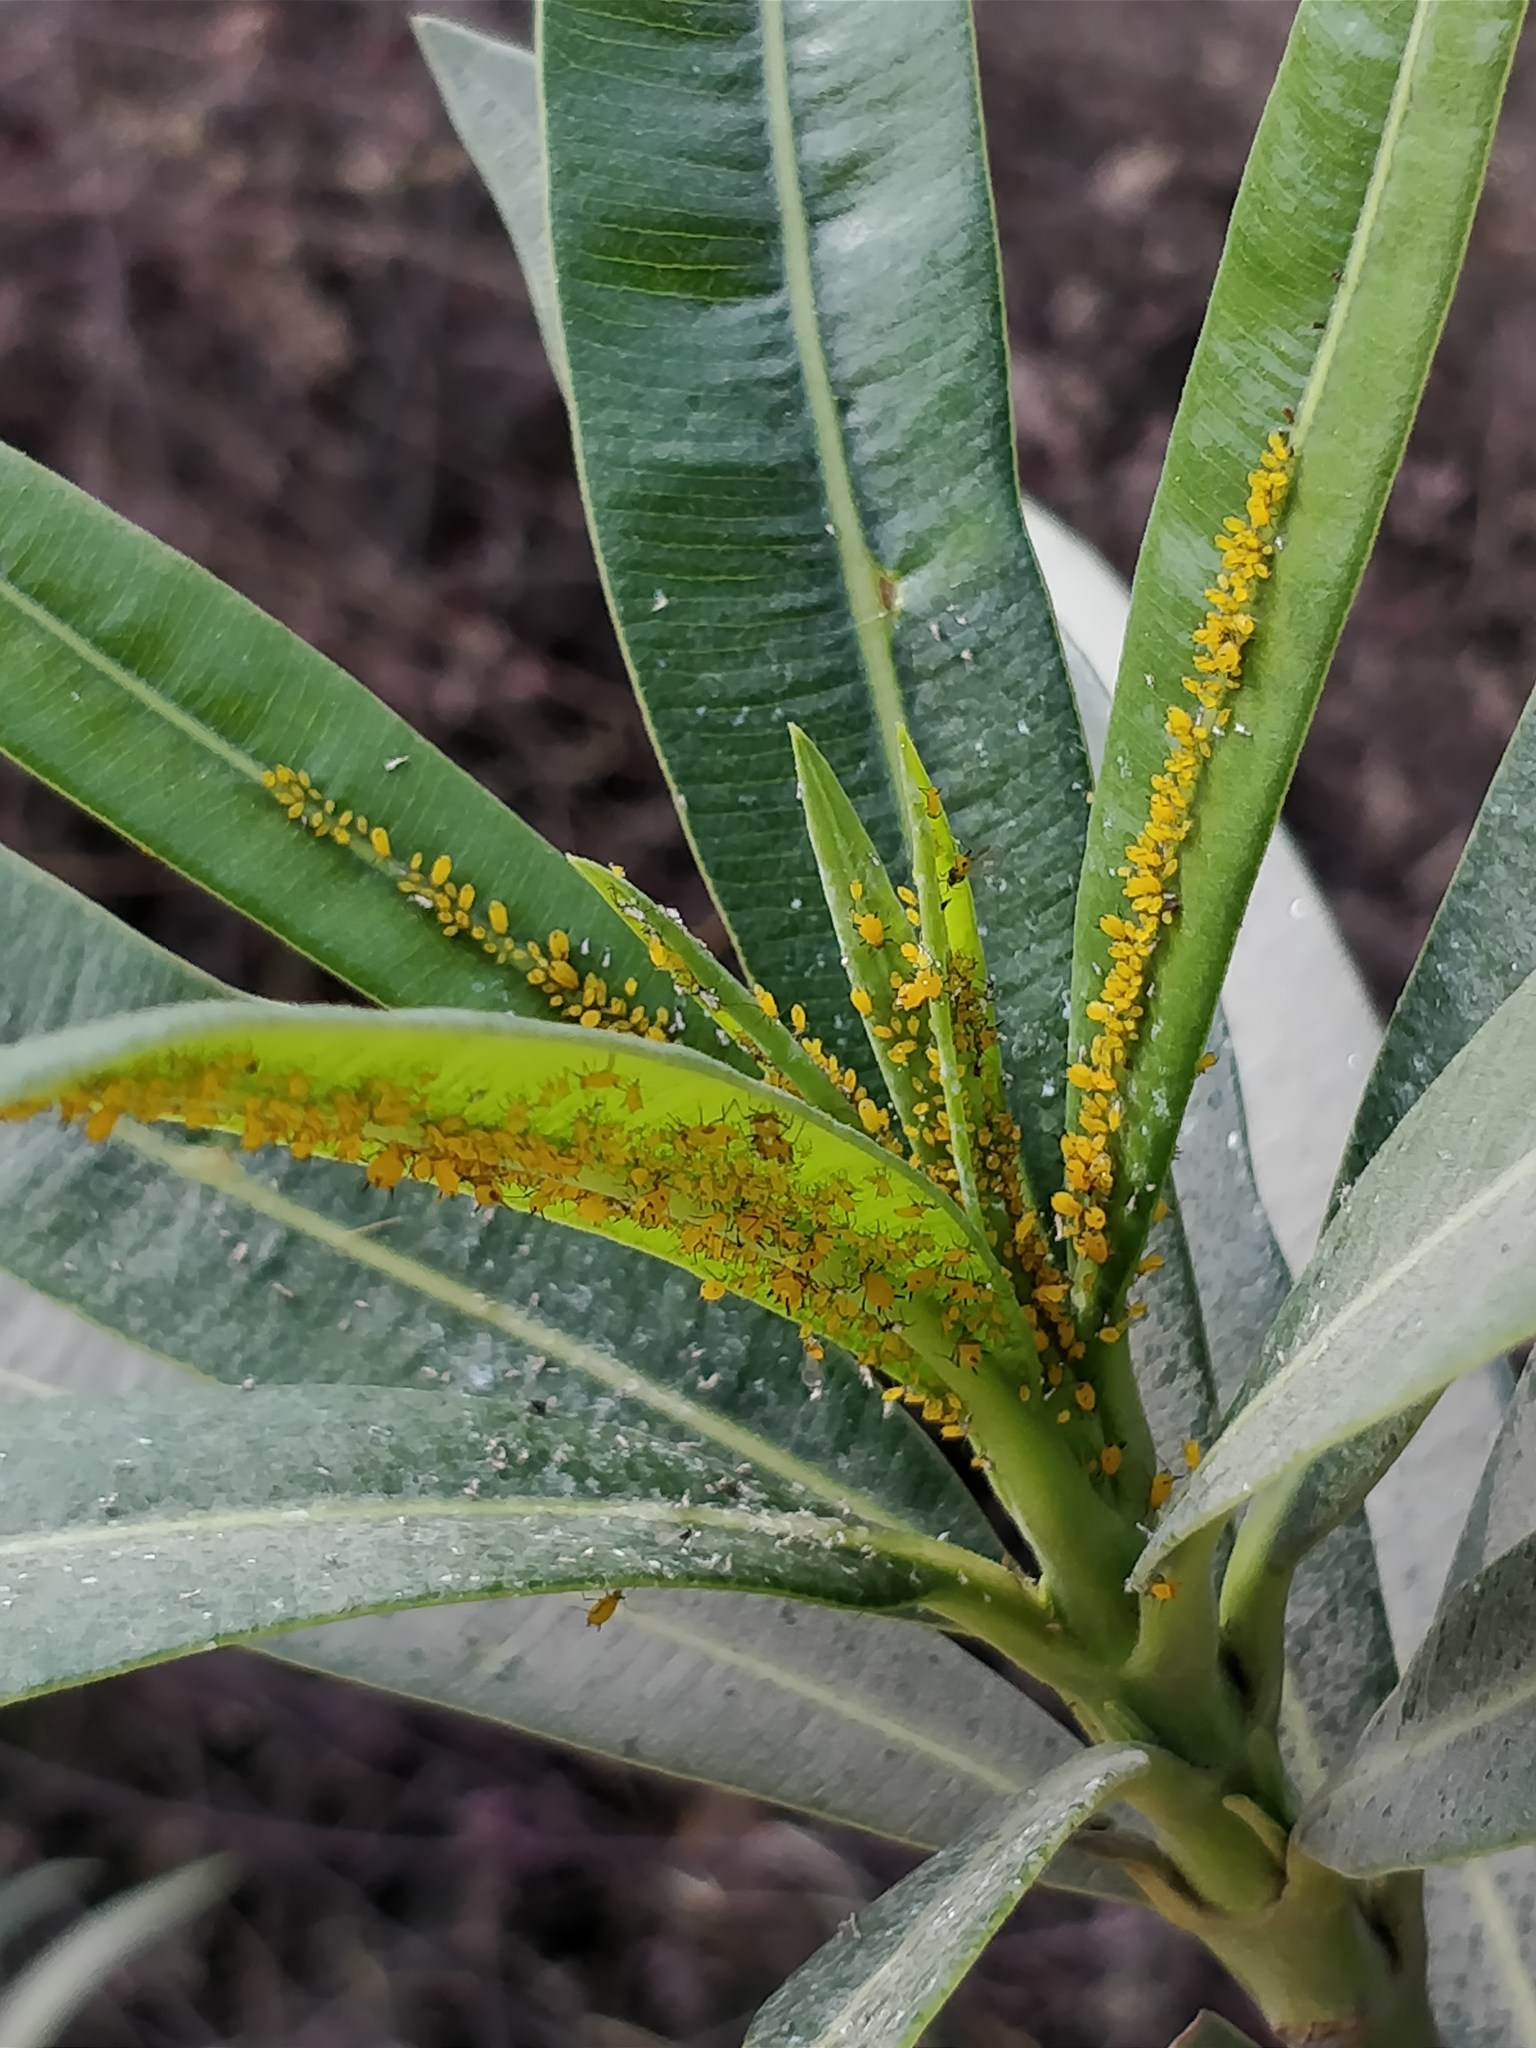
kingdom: Animalia
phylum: Arthropoda
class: Insecta
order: Hemiptera
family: Aphididae
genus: Aphis
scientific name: Aphis nerii
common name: Oleander aphid
